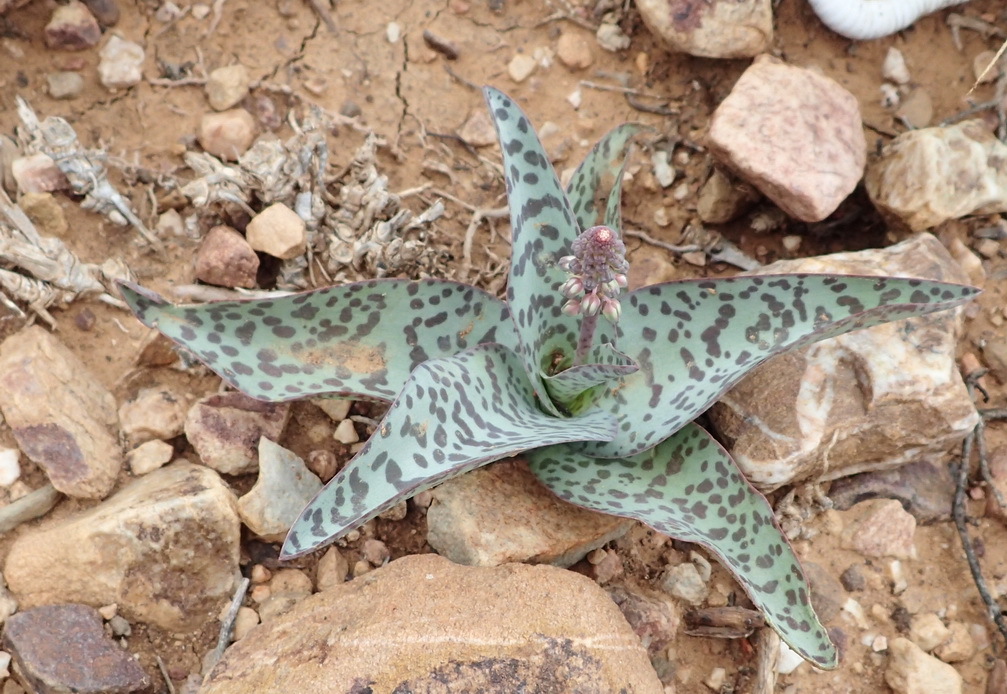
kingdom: Plantae
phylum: Tracheophyta
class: Liliopsida
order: Asparagales
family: Asparagaceae
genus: Ledebouria
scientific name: Ledebouria ensifolia
